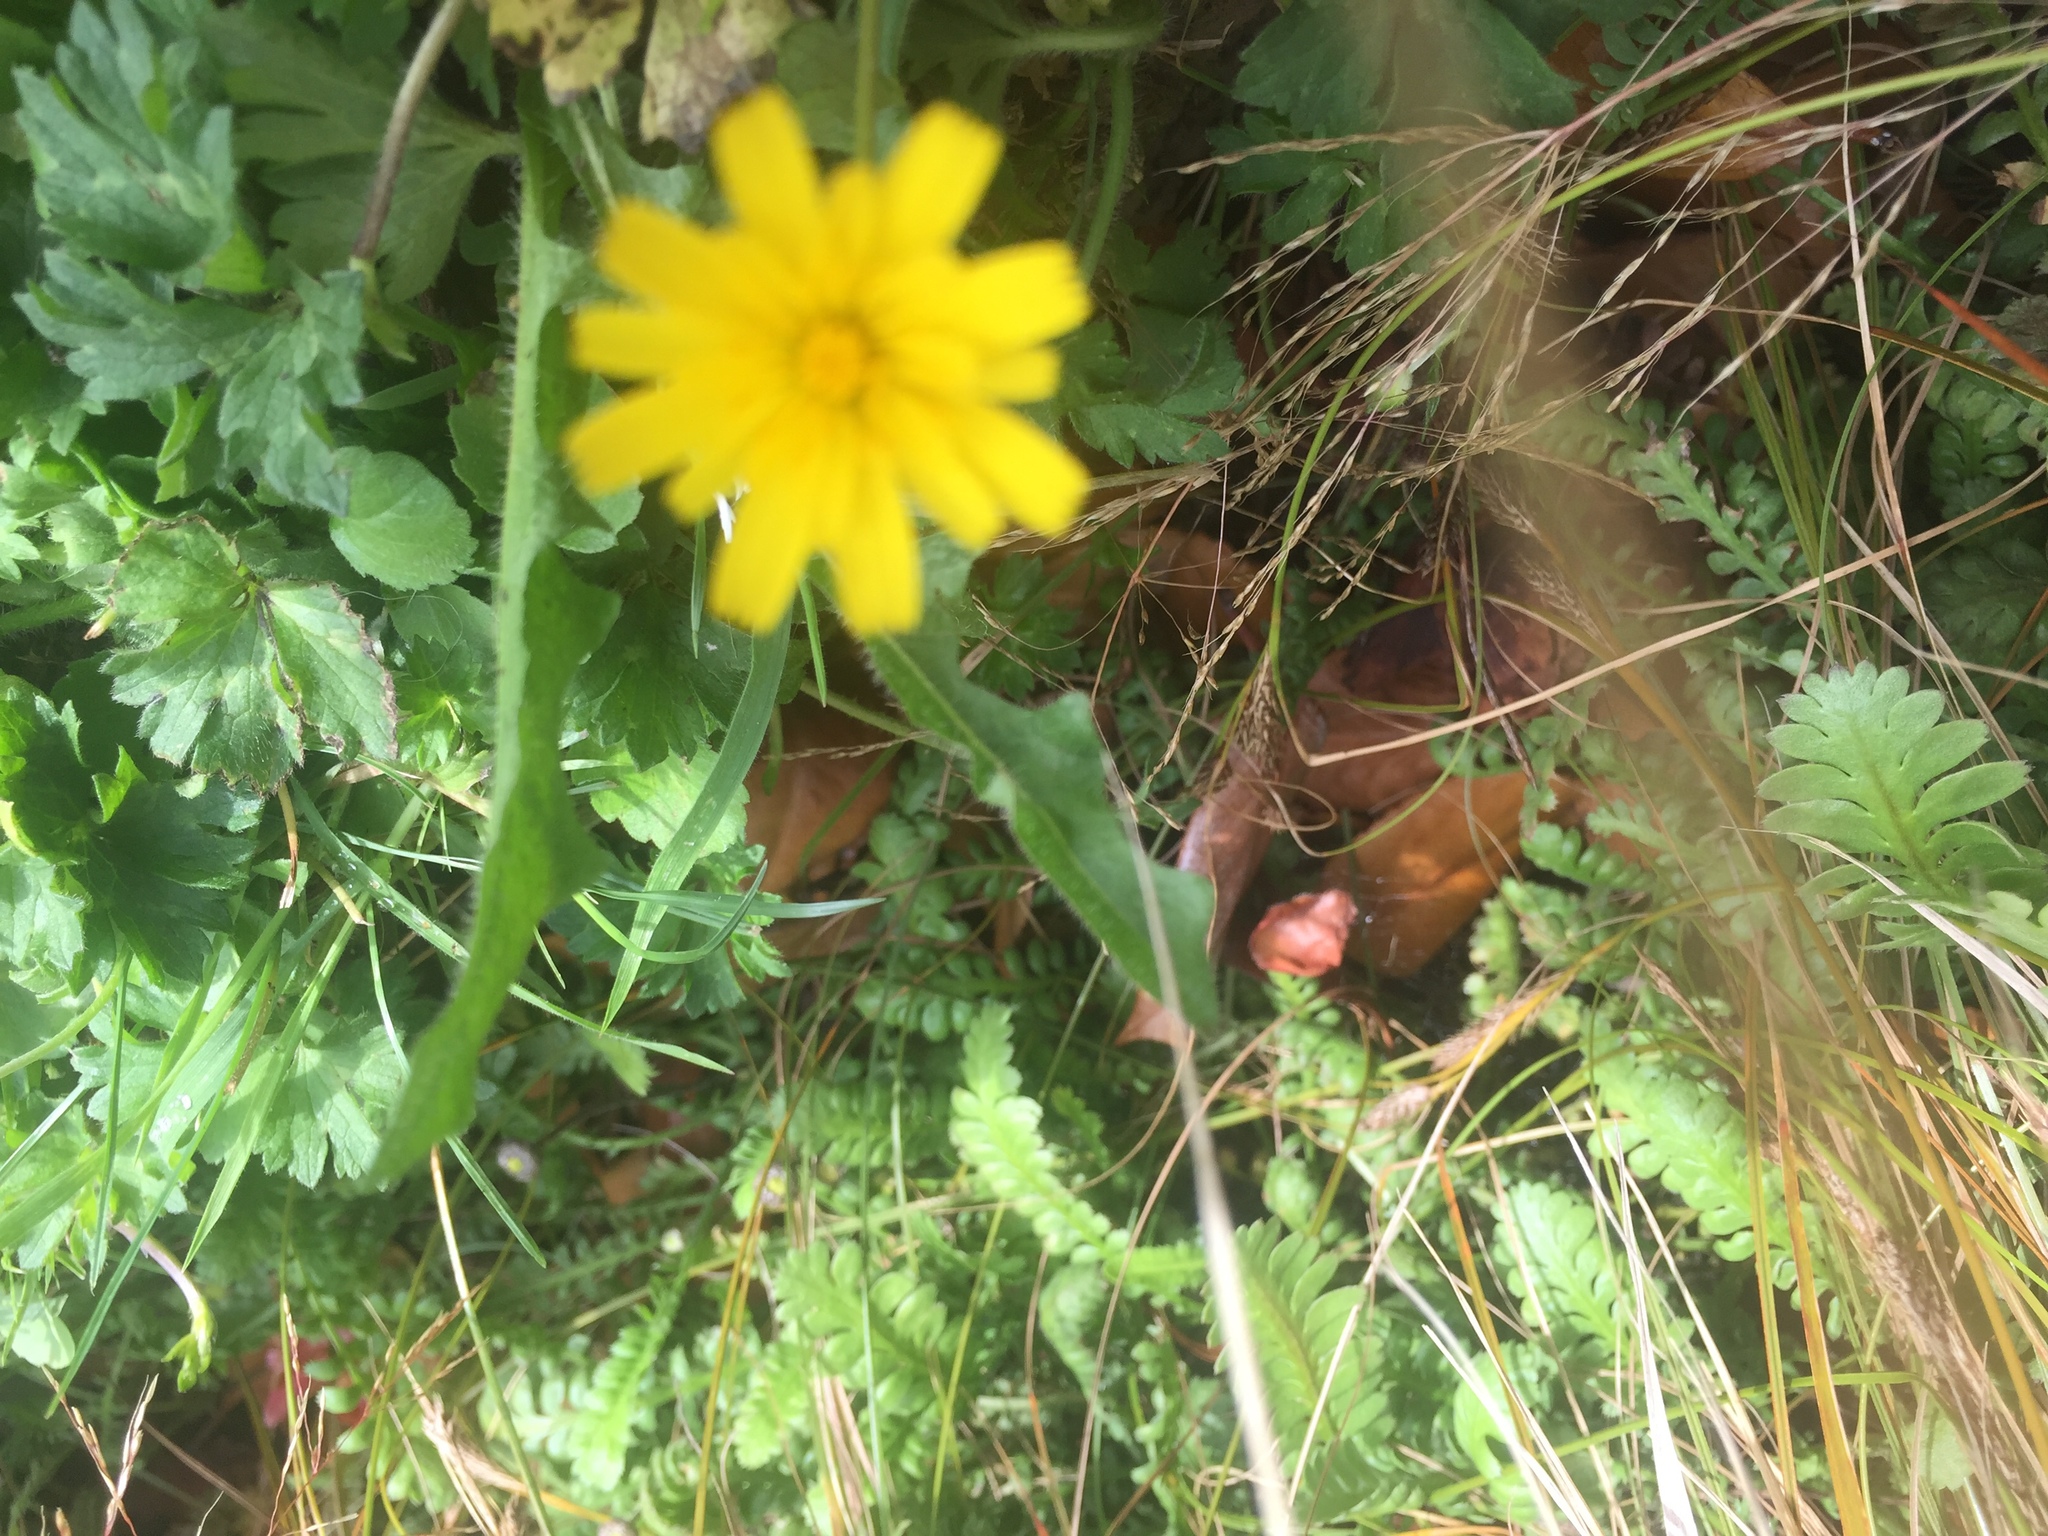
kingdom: Plantae
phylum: Tracheophyta
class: Magnoliopsida
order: Asterales
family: Asteraceae
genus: Hypochaeris
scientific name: Hypochaeris radicata
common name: Flatweed
